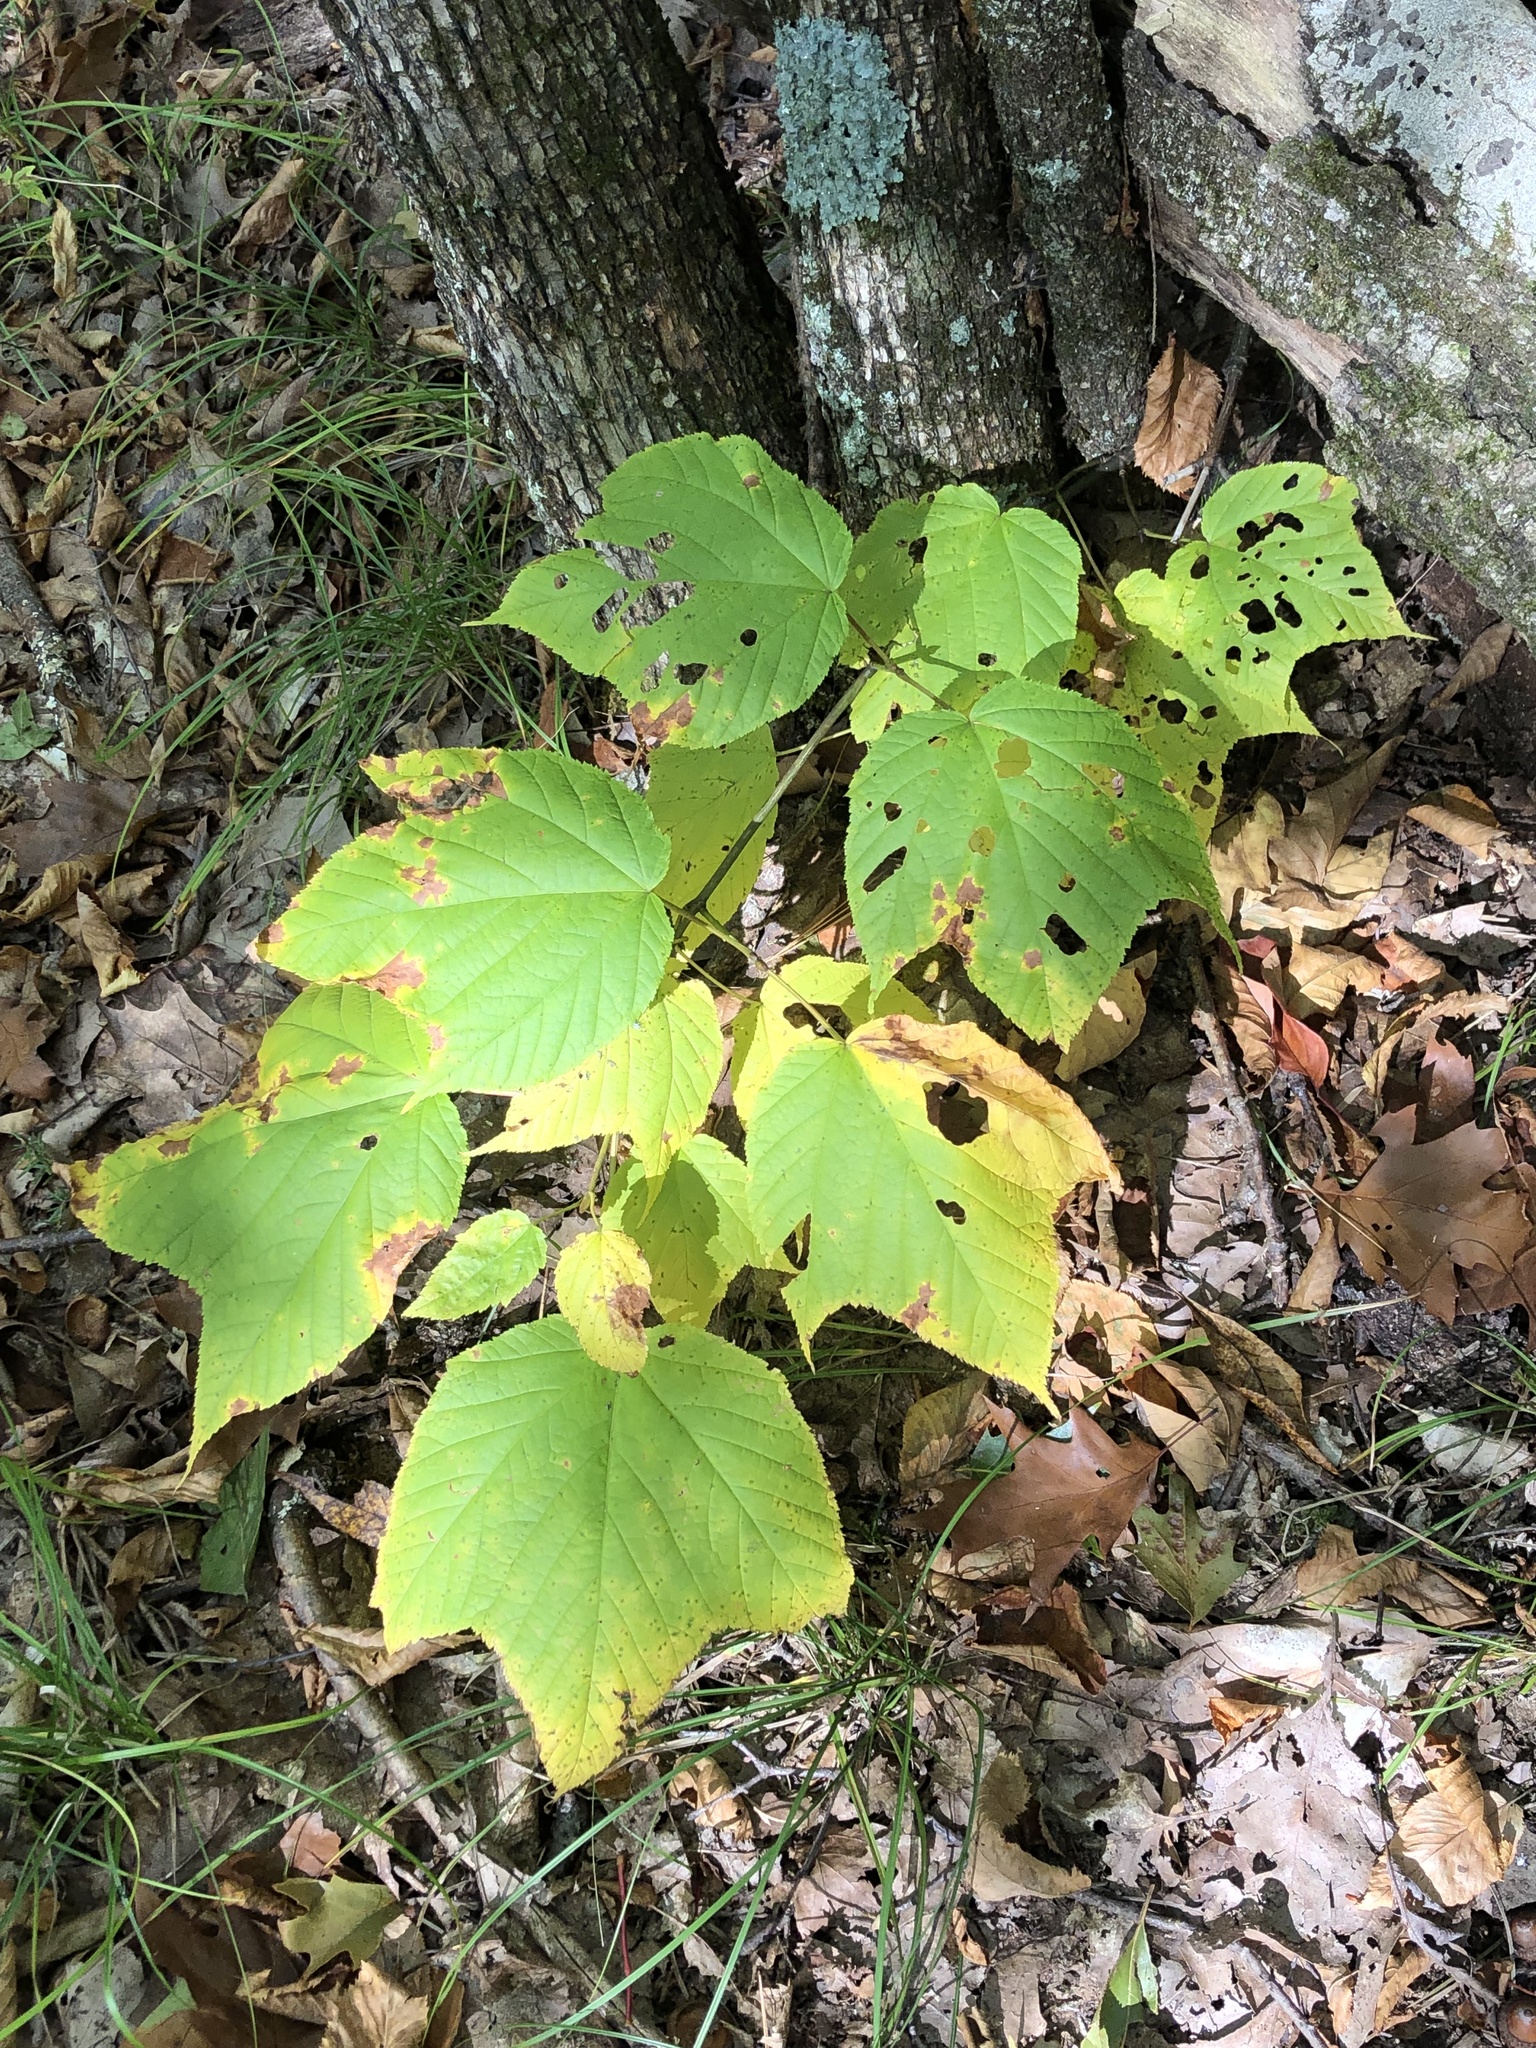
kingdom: Plantae
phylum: Tracheophyta
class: Magnoliopsida
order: Sapindales
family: Sapindaceae
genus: Acer
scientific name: Acer pensylvanicum
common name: Moosewood
